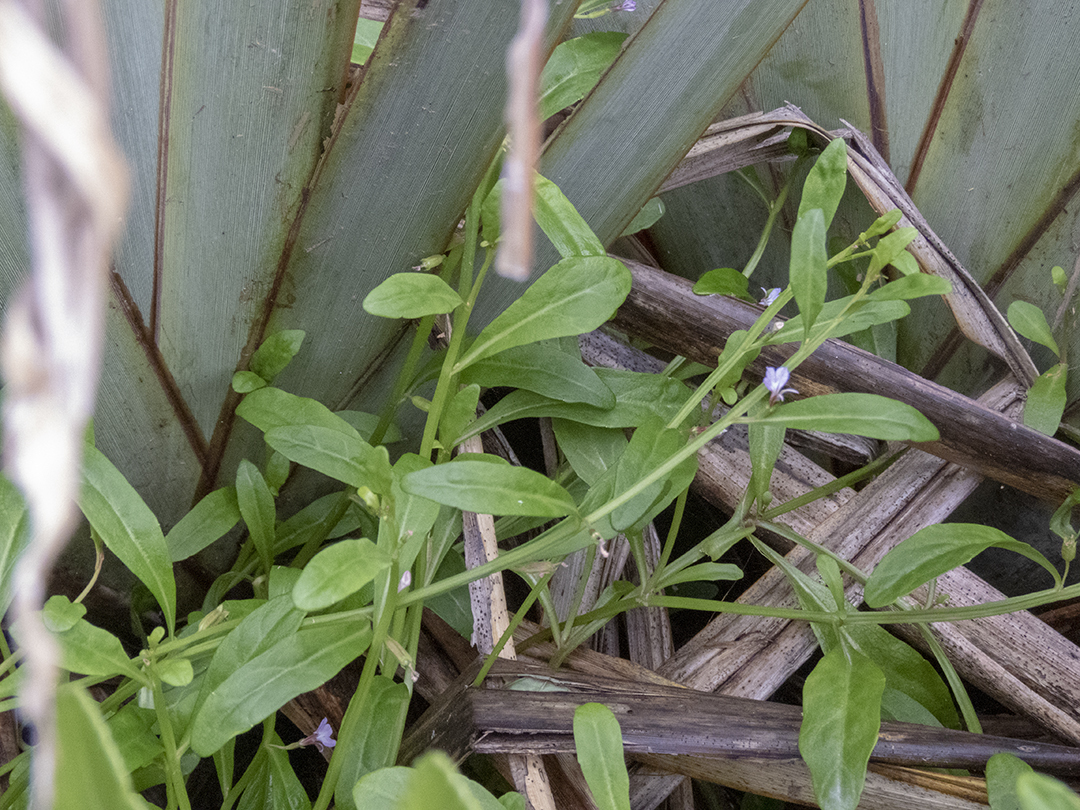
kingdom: Plantae
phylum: Tracheophyta
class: Magnoliopsida
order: Asterales
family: Campanulaceae
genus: Lobelia
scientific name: Lobelia anceps
